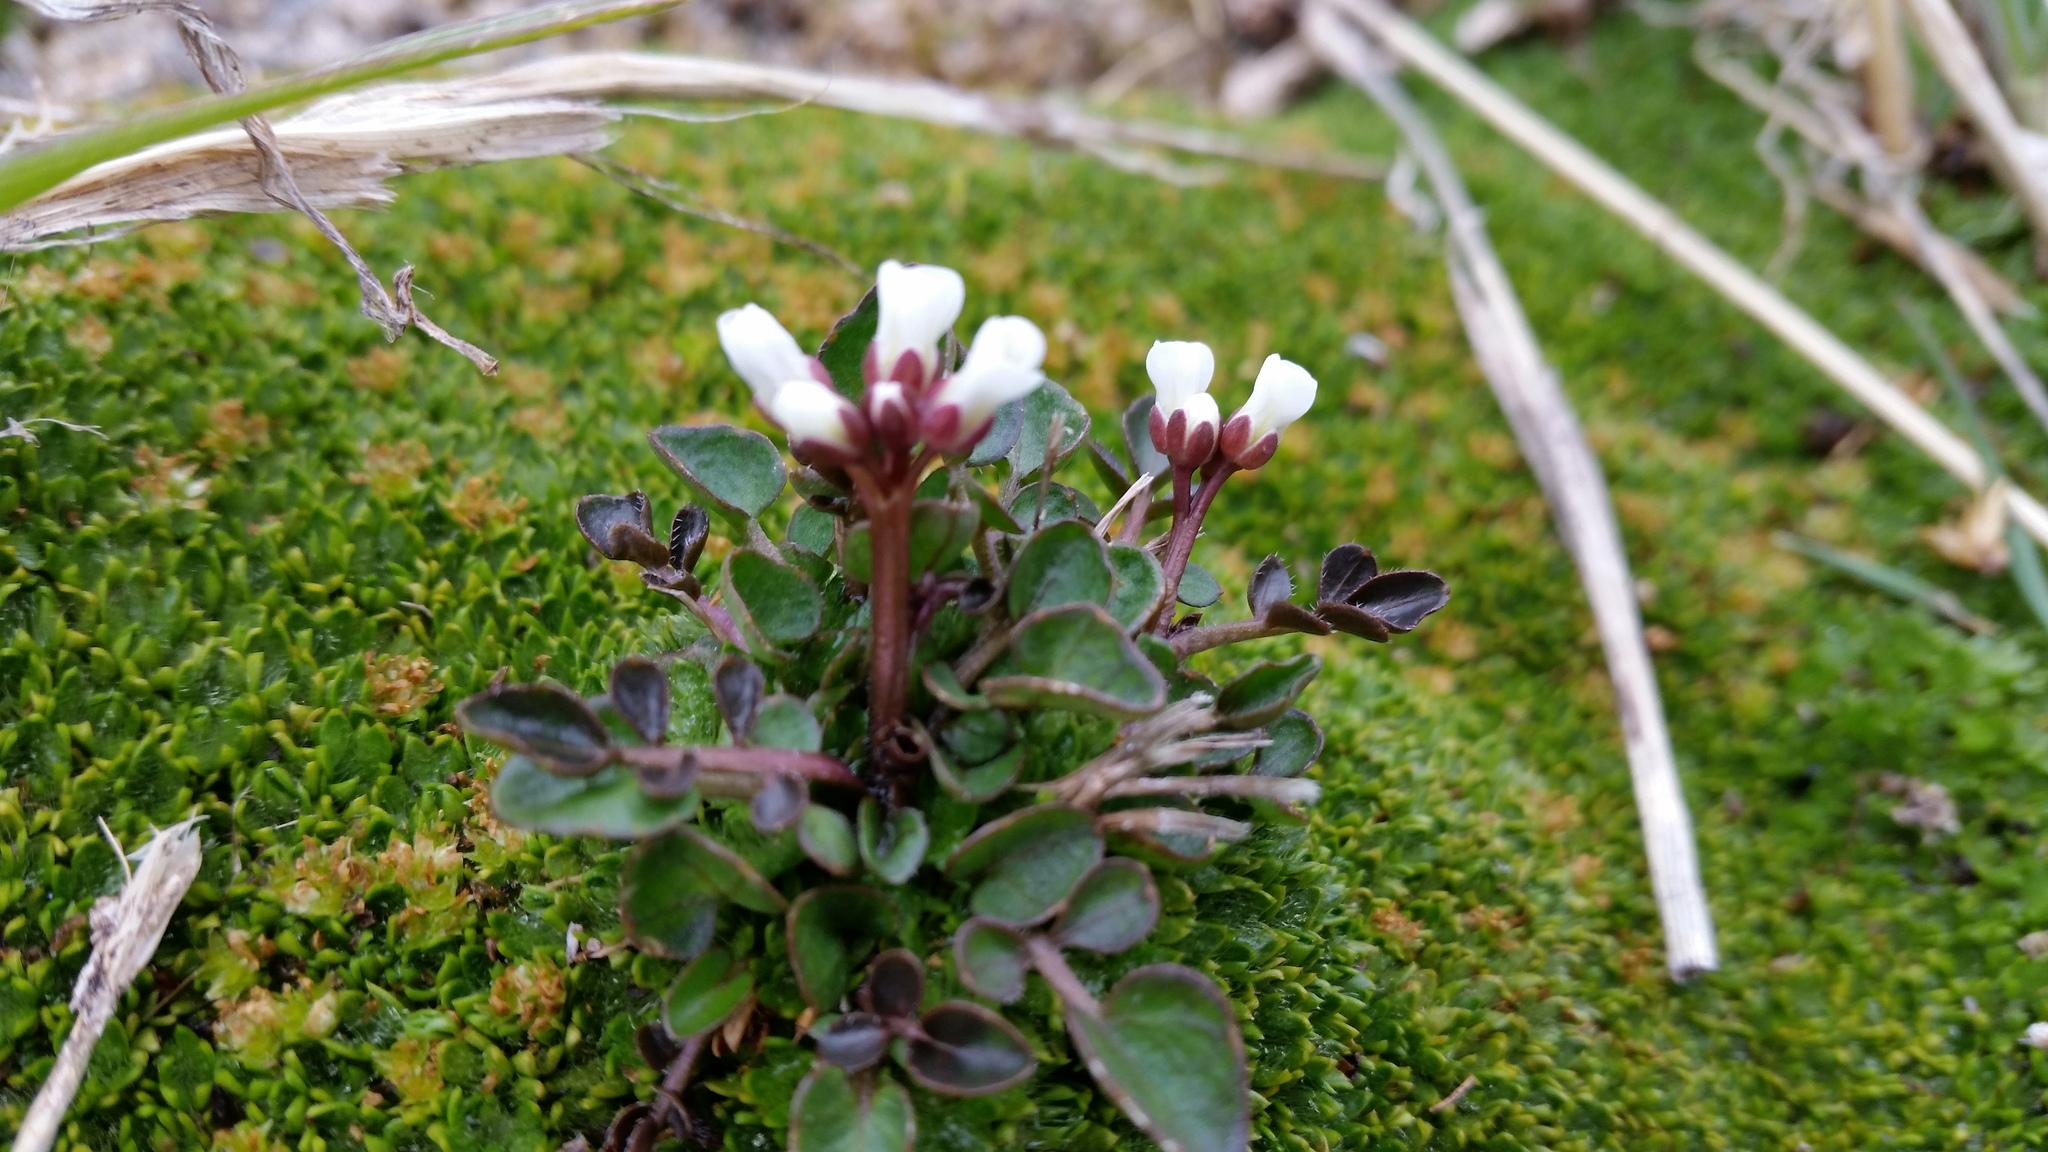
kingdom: Plantae
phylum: Tracheophyta
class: Magnoliopsida
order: Brassicales
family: Brassicaceae
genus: Cardamine
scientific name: Cardamine glacialis
